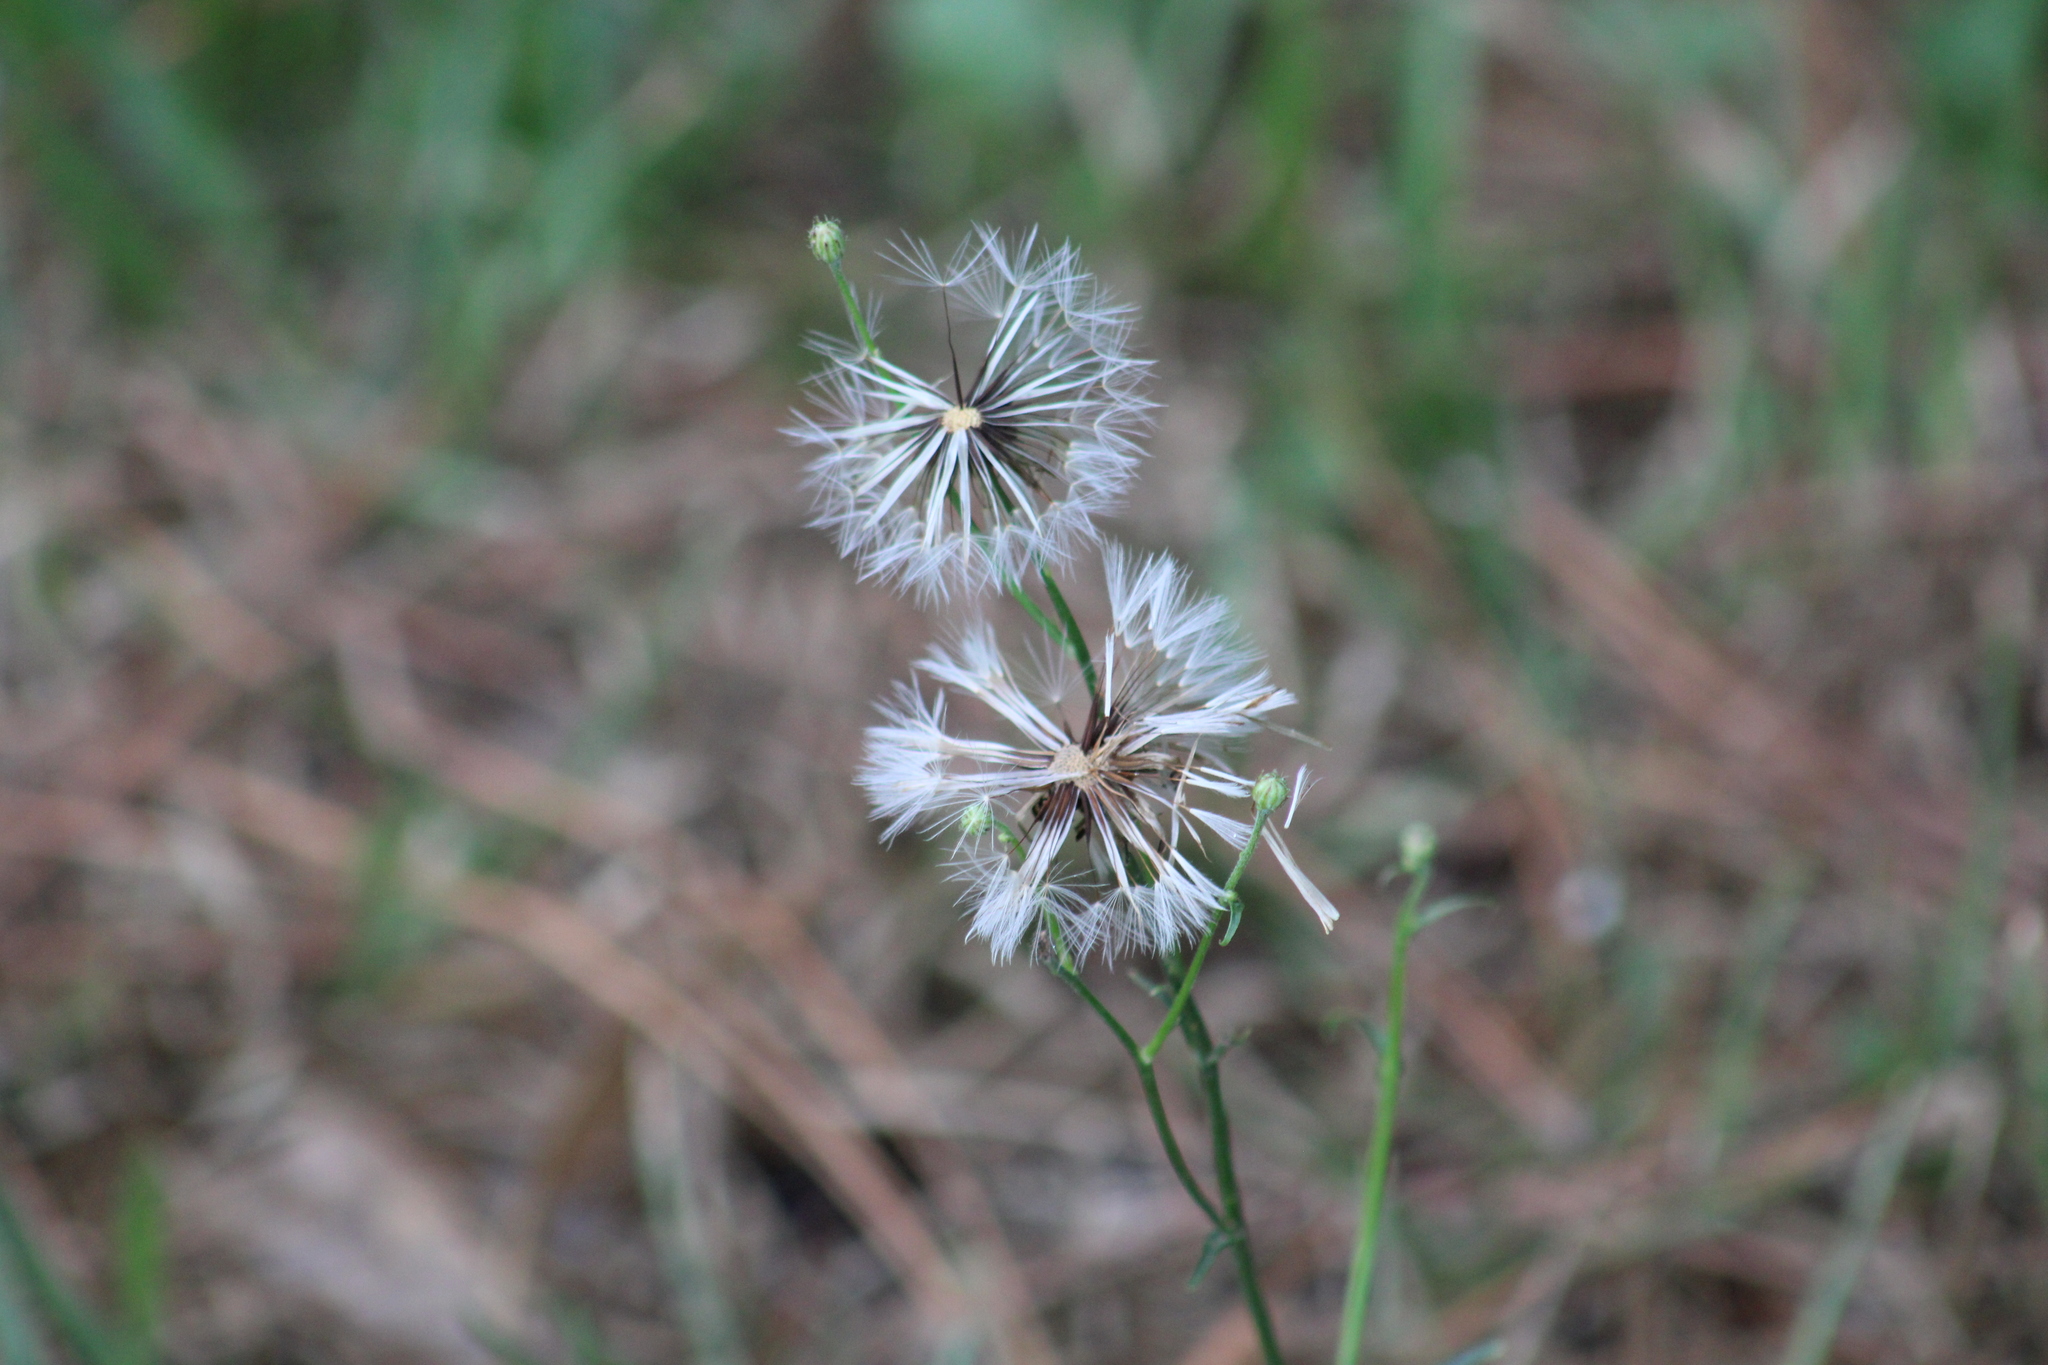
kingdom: Plantae
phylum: Tracheophyta
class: Magnoliopsida
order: Asterales
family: Asteraceae
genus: Hypochaeris
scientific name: Hypochaeris chillensis
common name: Brazilian cat's ear
